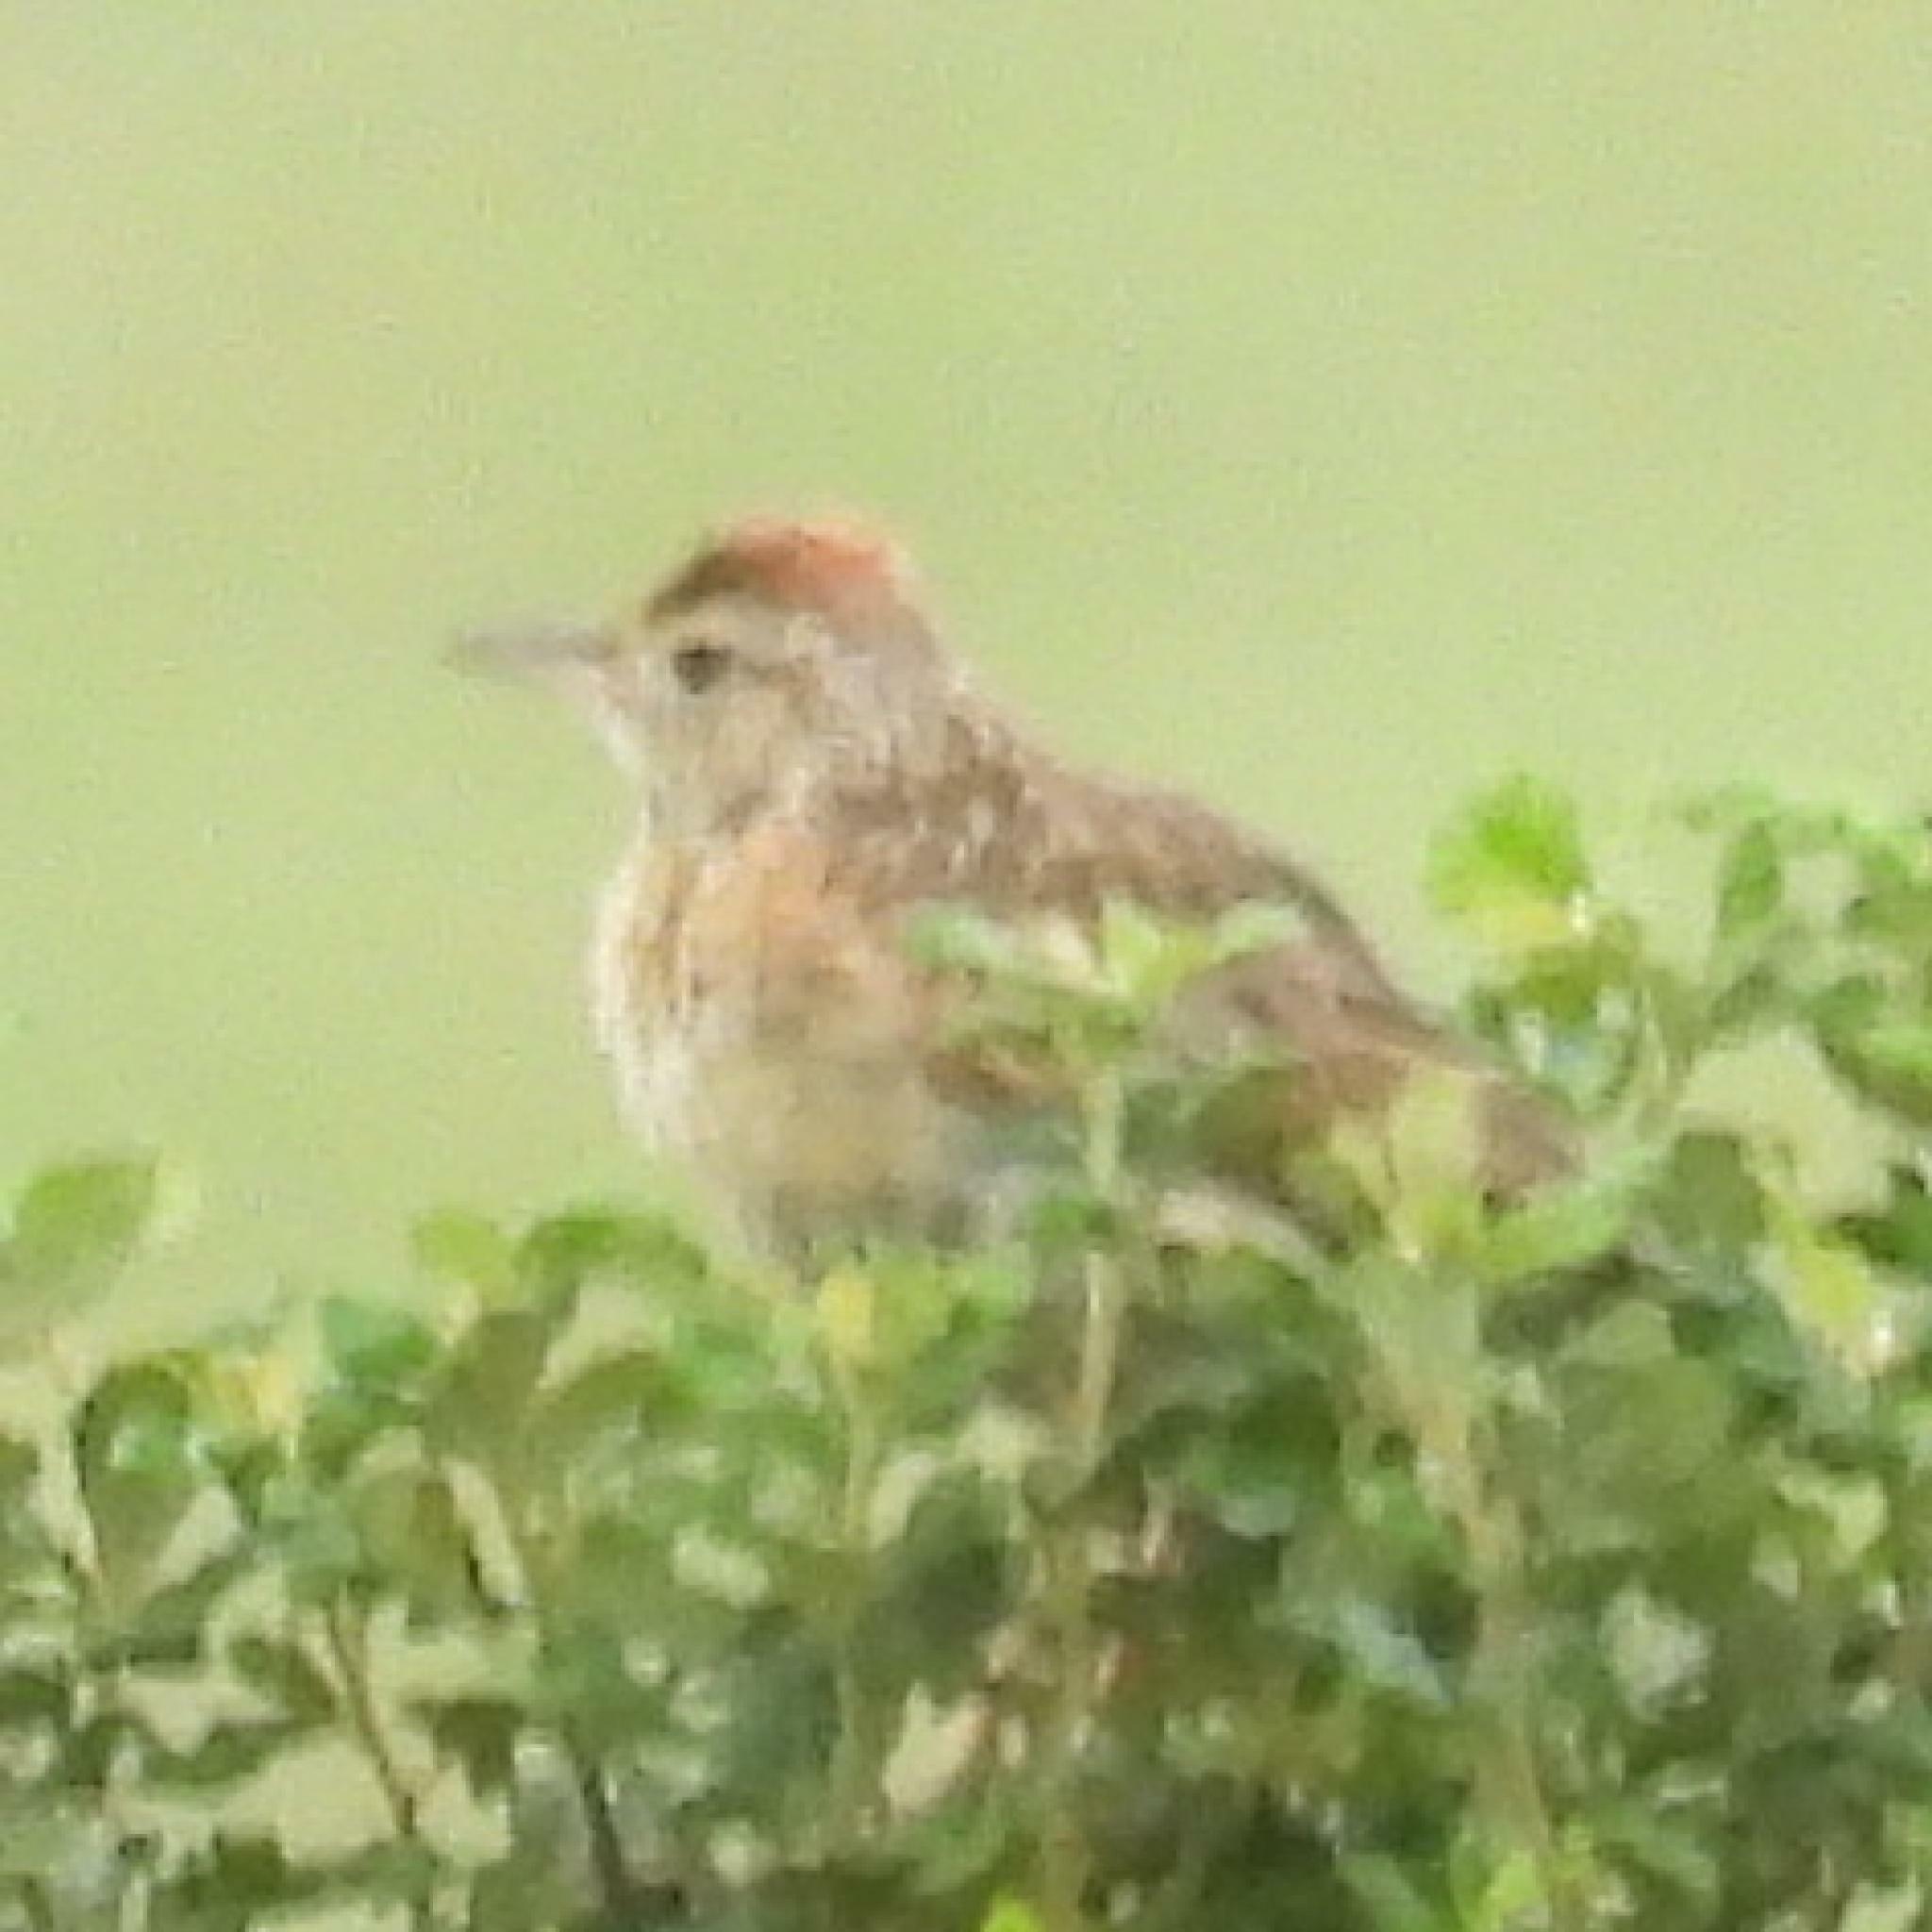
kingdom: Animalia
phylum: Chordata
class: Aves
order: Passeriformes
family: Alaudidae
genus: Mirafra
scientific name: Mirafra africana
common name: Rufous-naped lark
